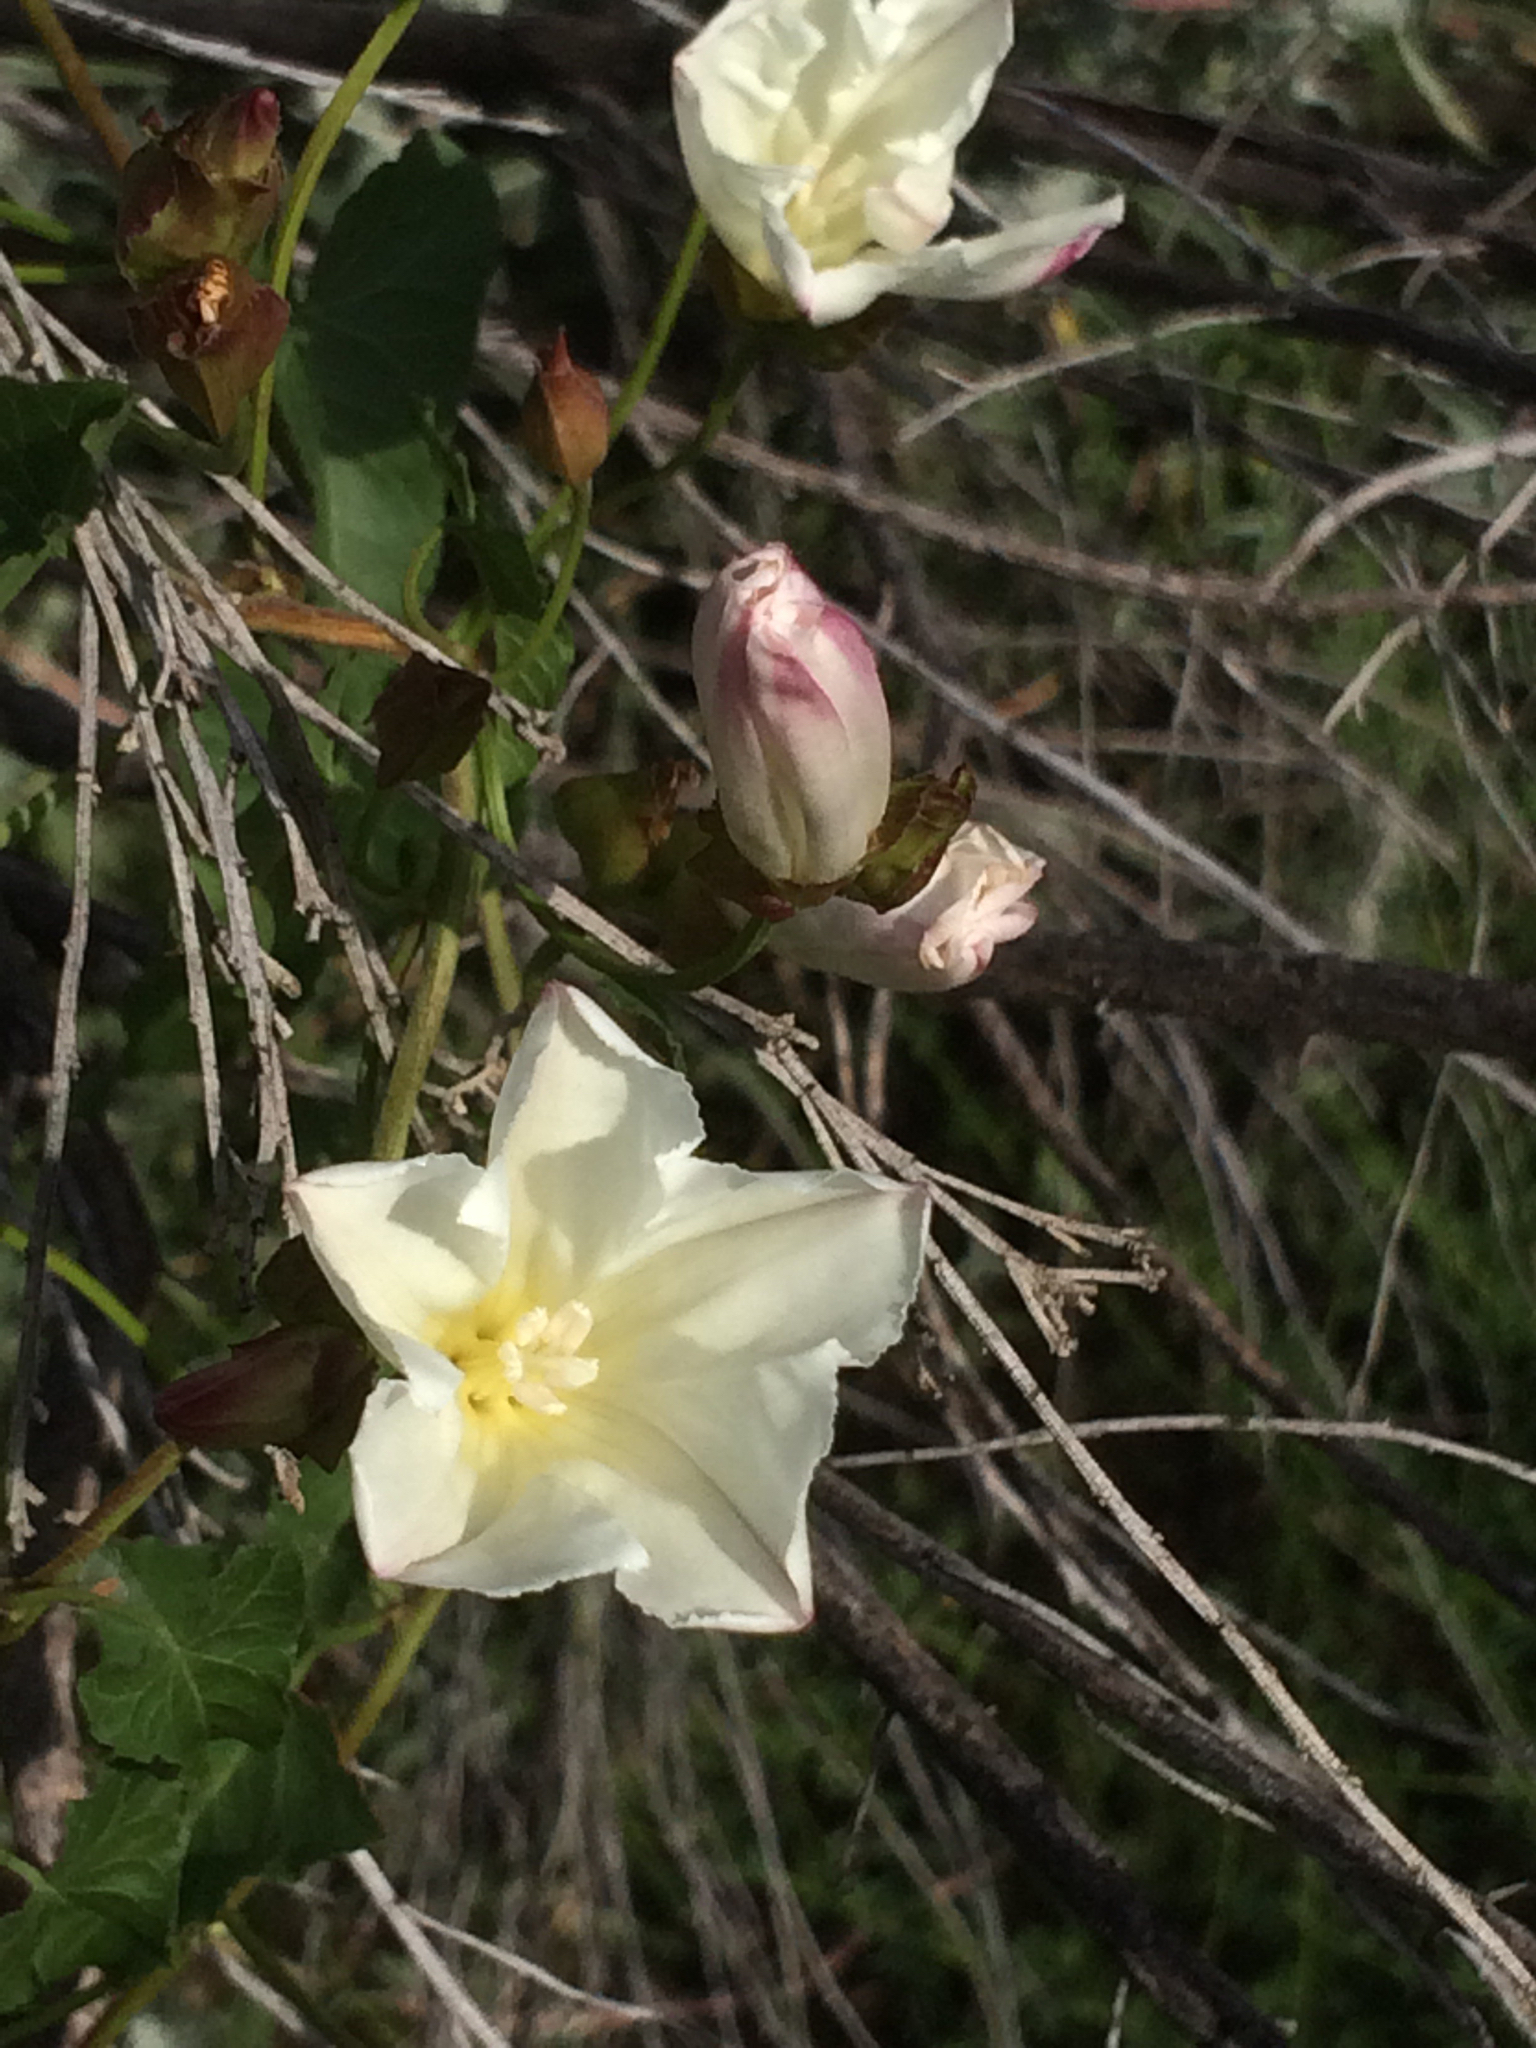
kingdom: Plantae
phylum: Tracheophyta
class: Magnoliopsida
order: Solanales
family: Convolvulaceae
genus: Calystegia
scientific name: Calystegia macrostegia
